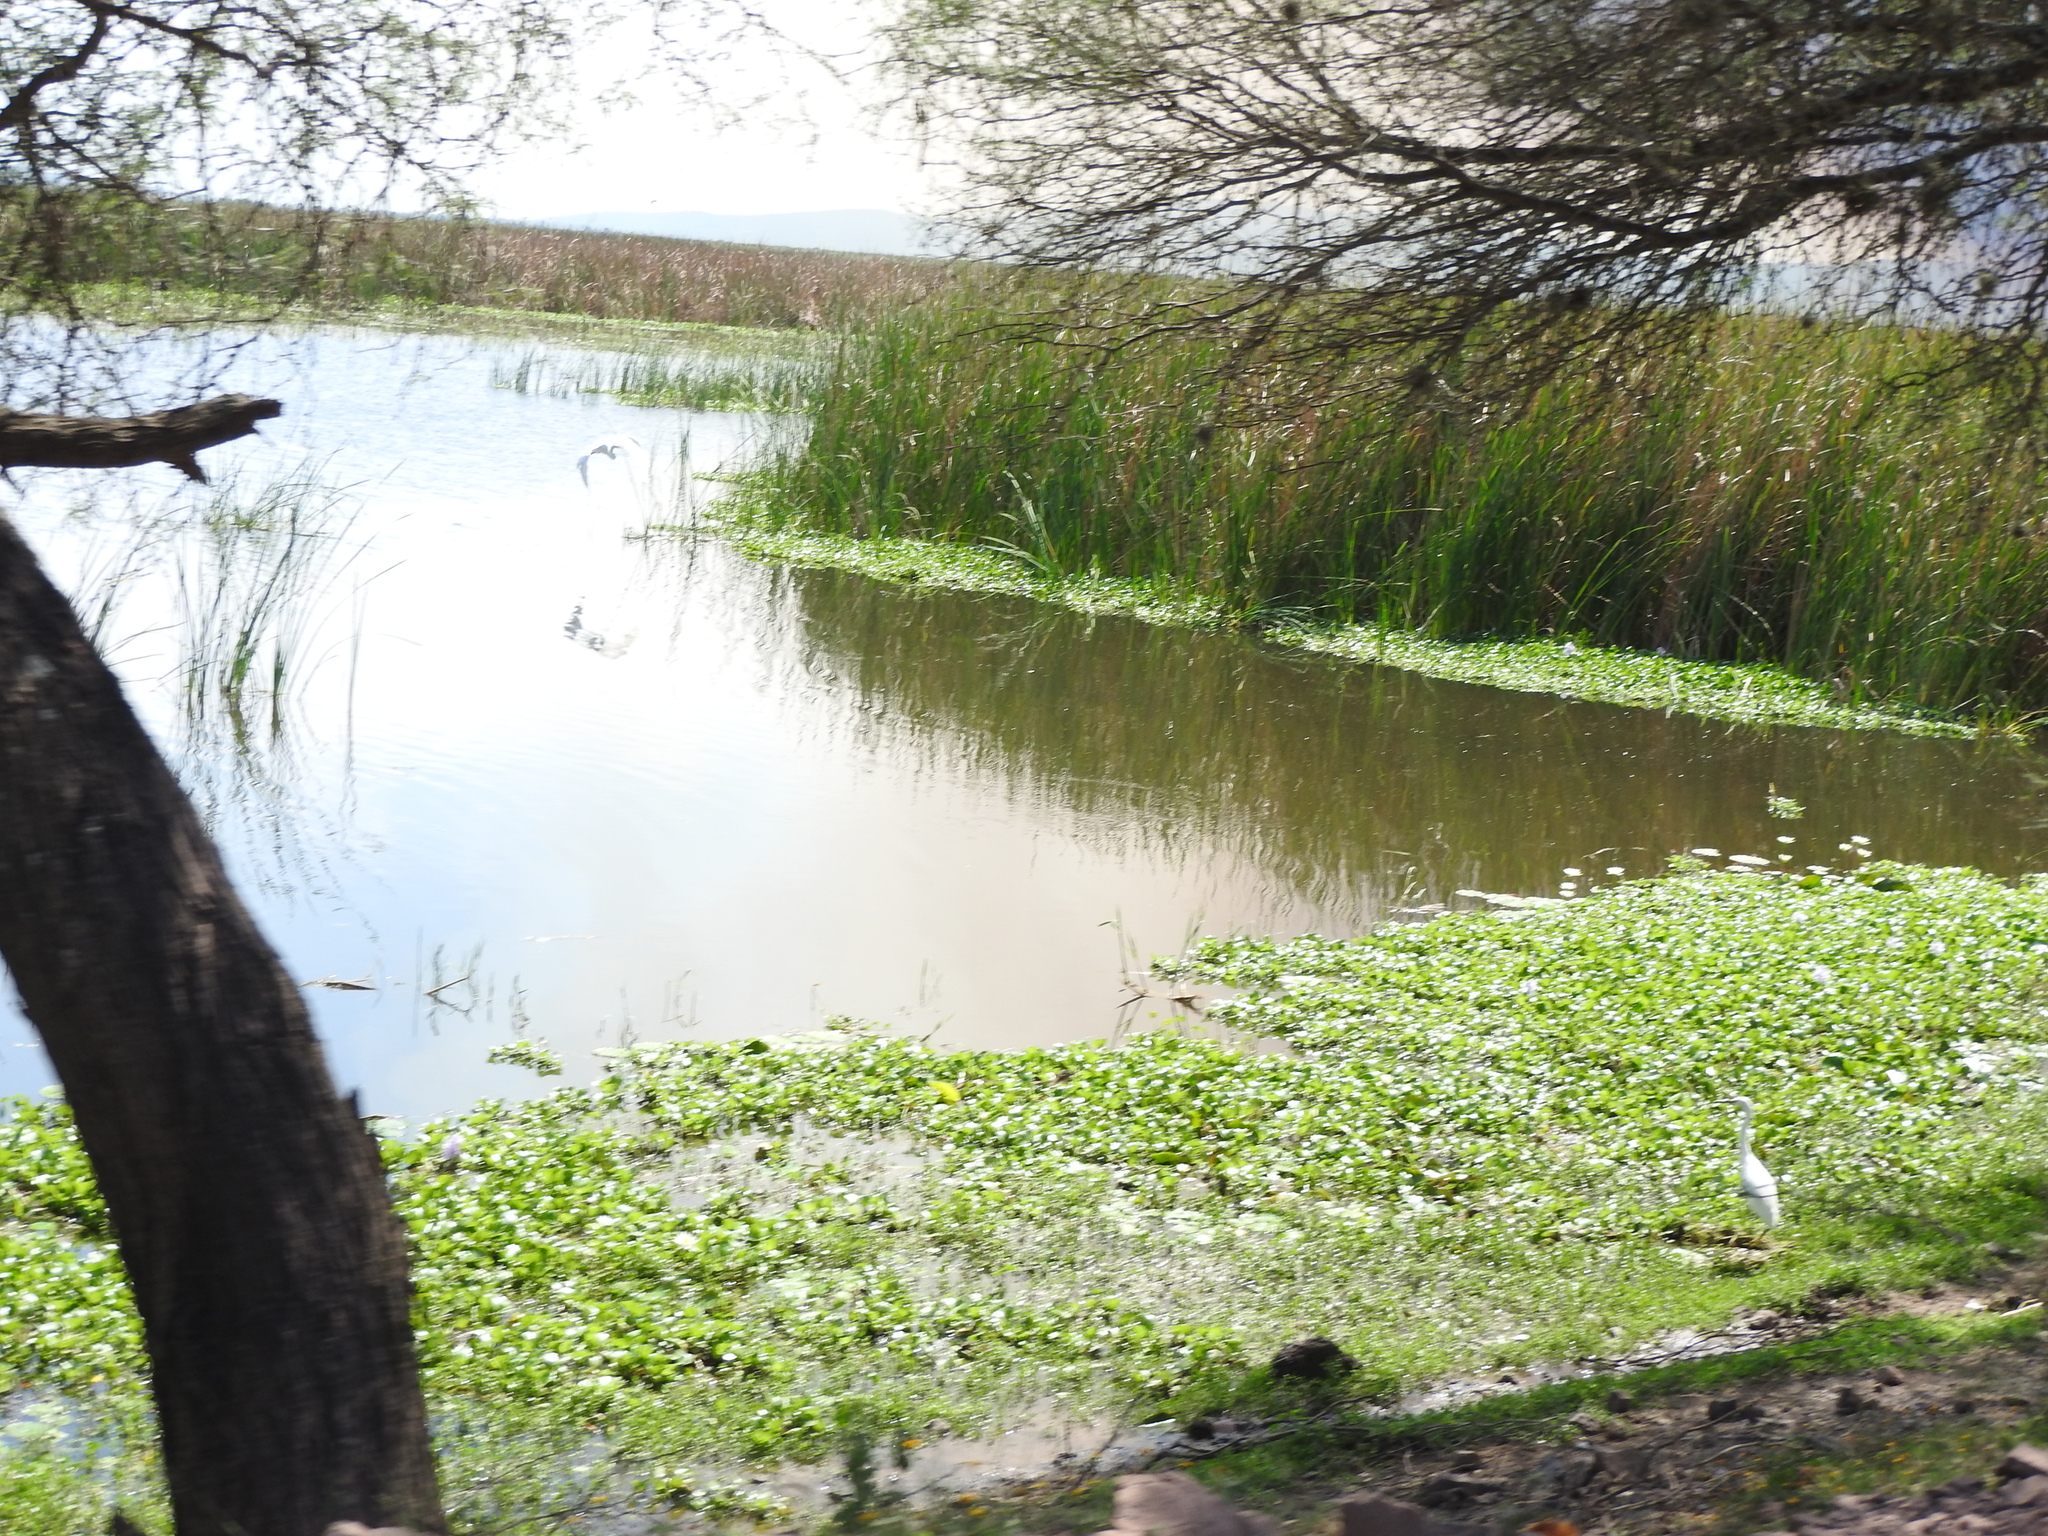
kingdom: Animalia
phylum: Chordata
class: Aves
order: Pelecaniformes
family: Ardeidae
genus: Egretta
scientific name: Egretta thula
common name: Snowy egret
